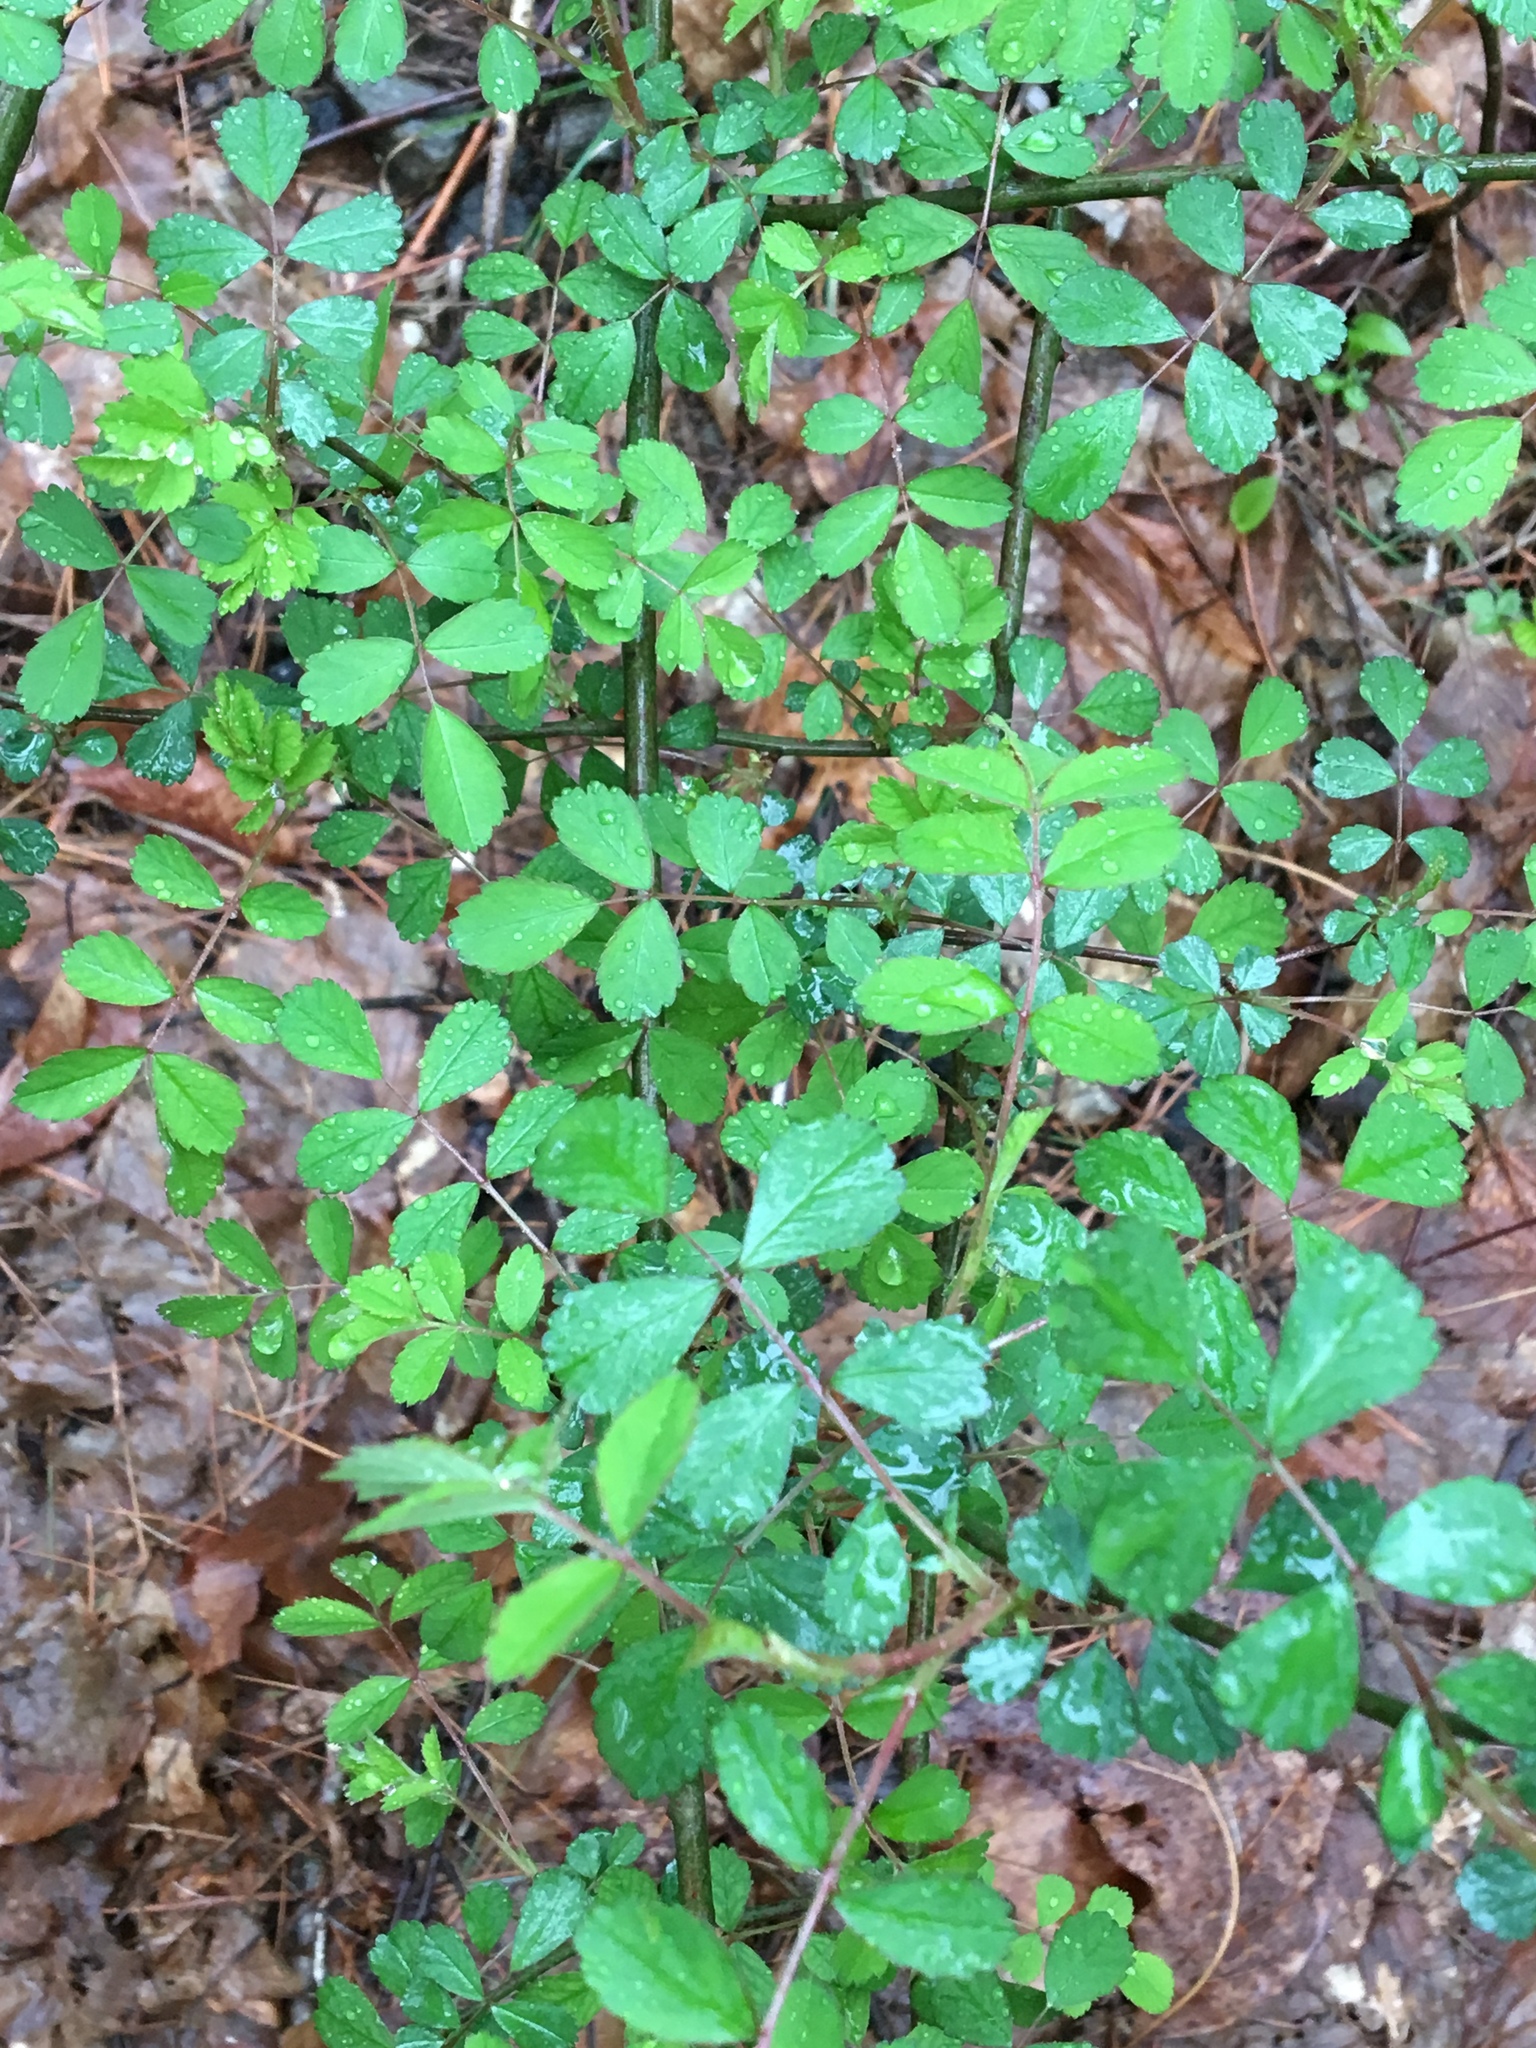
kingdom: Plantae
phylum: Tracheophyta
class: Magnoliopsida
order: Rosales
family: Rosaceae
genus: Rosa
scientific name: Rosa multiflora
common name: Multiflora rose
